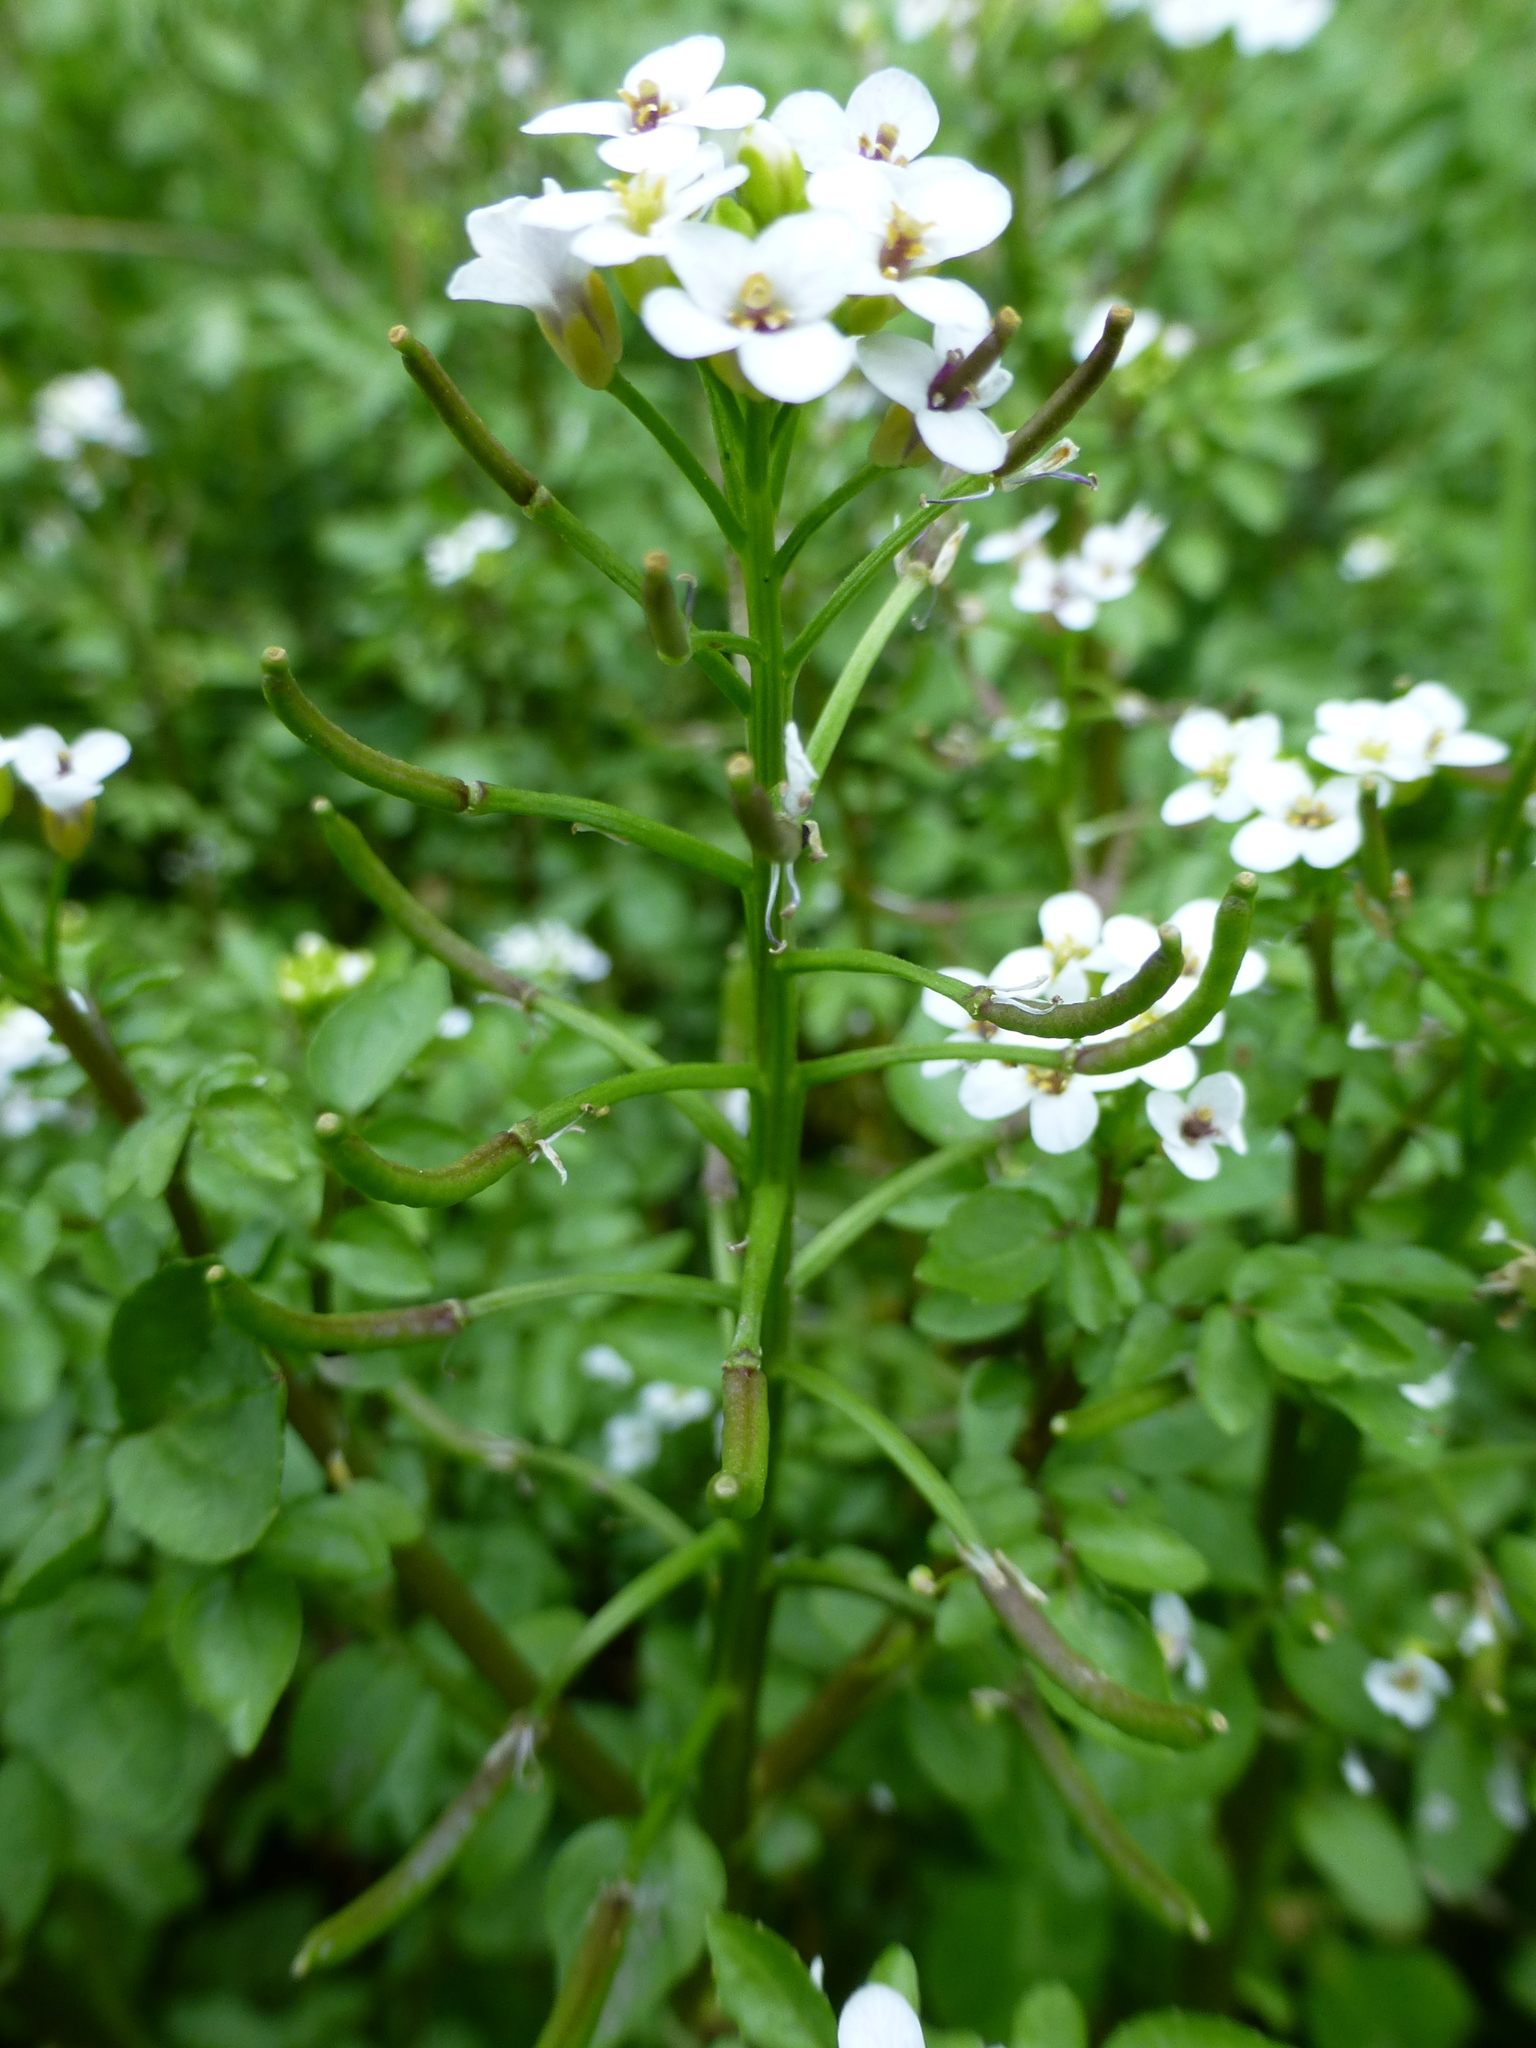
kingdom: Plantae
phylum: Tracheophyta
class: Magnoliopsida
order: Brassicales
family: Brassicaceae
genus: Nasturtium
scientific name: Nasturtium officinale
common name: Watercress
